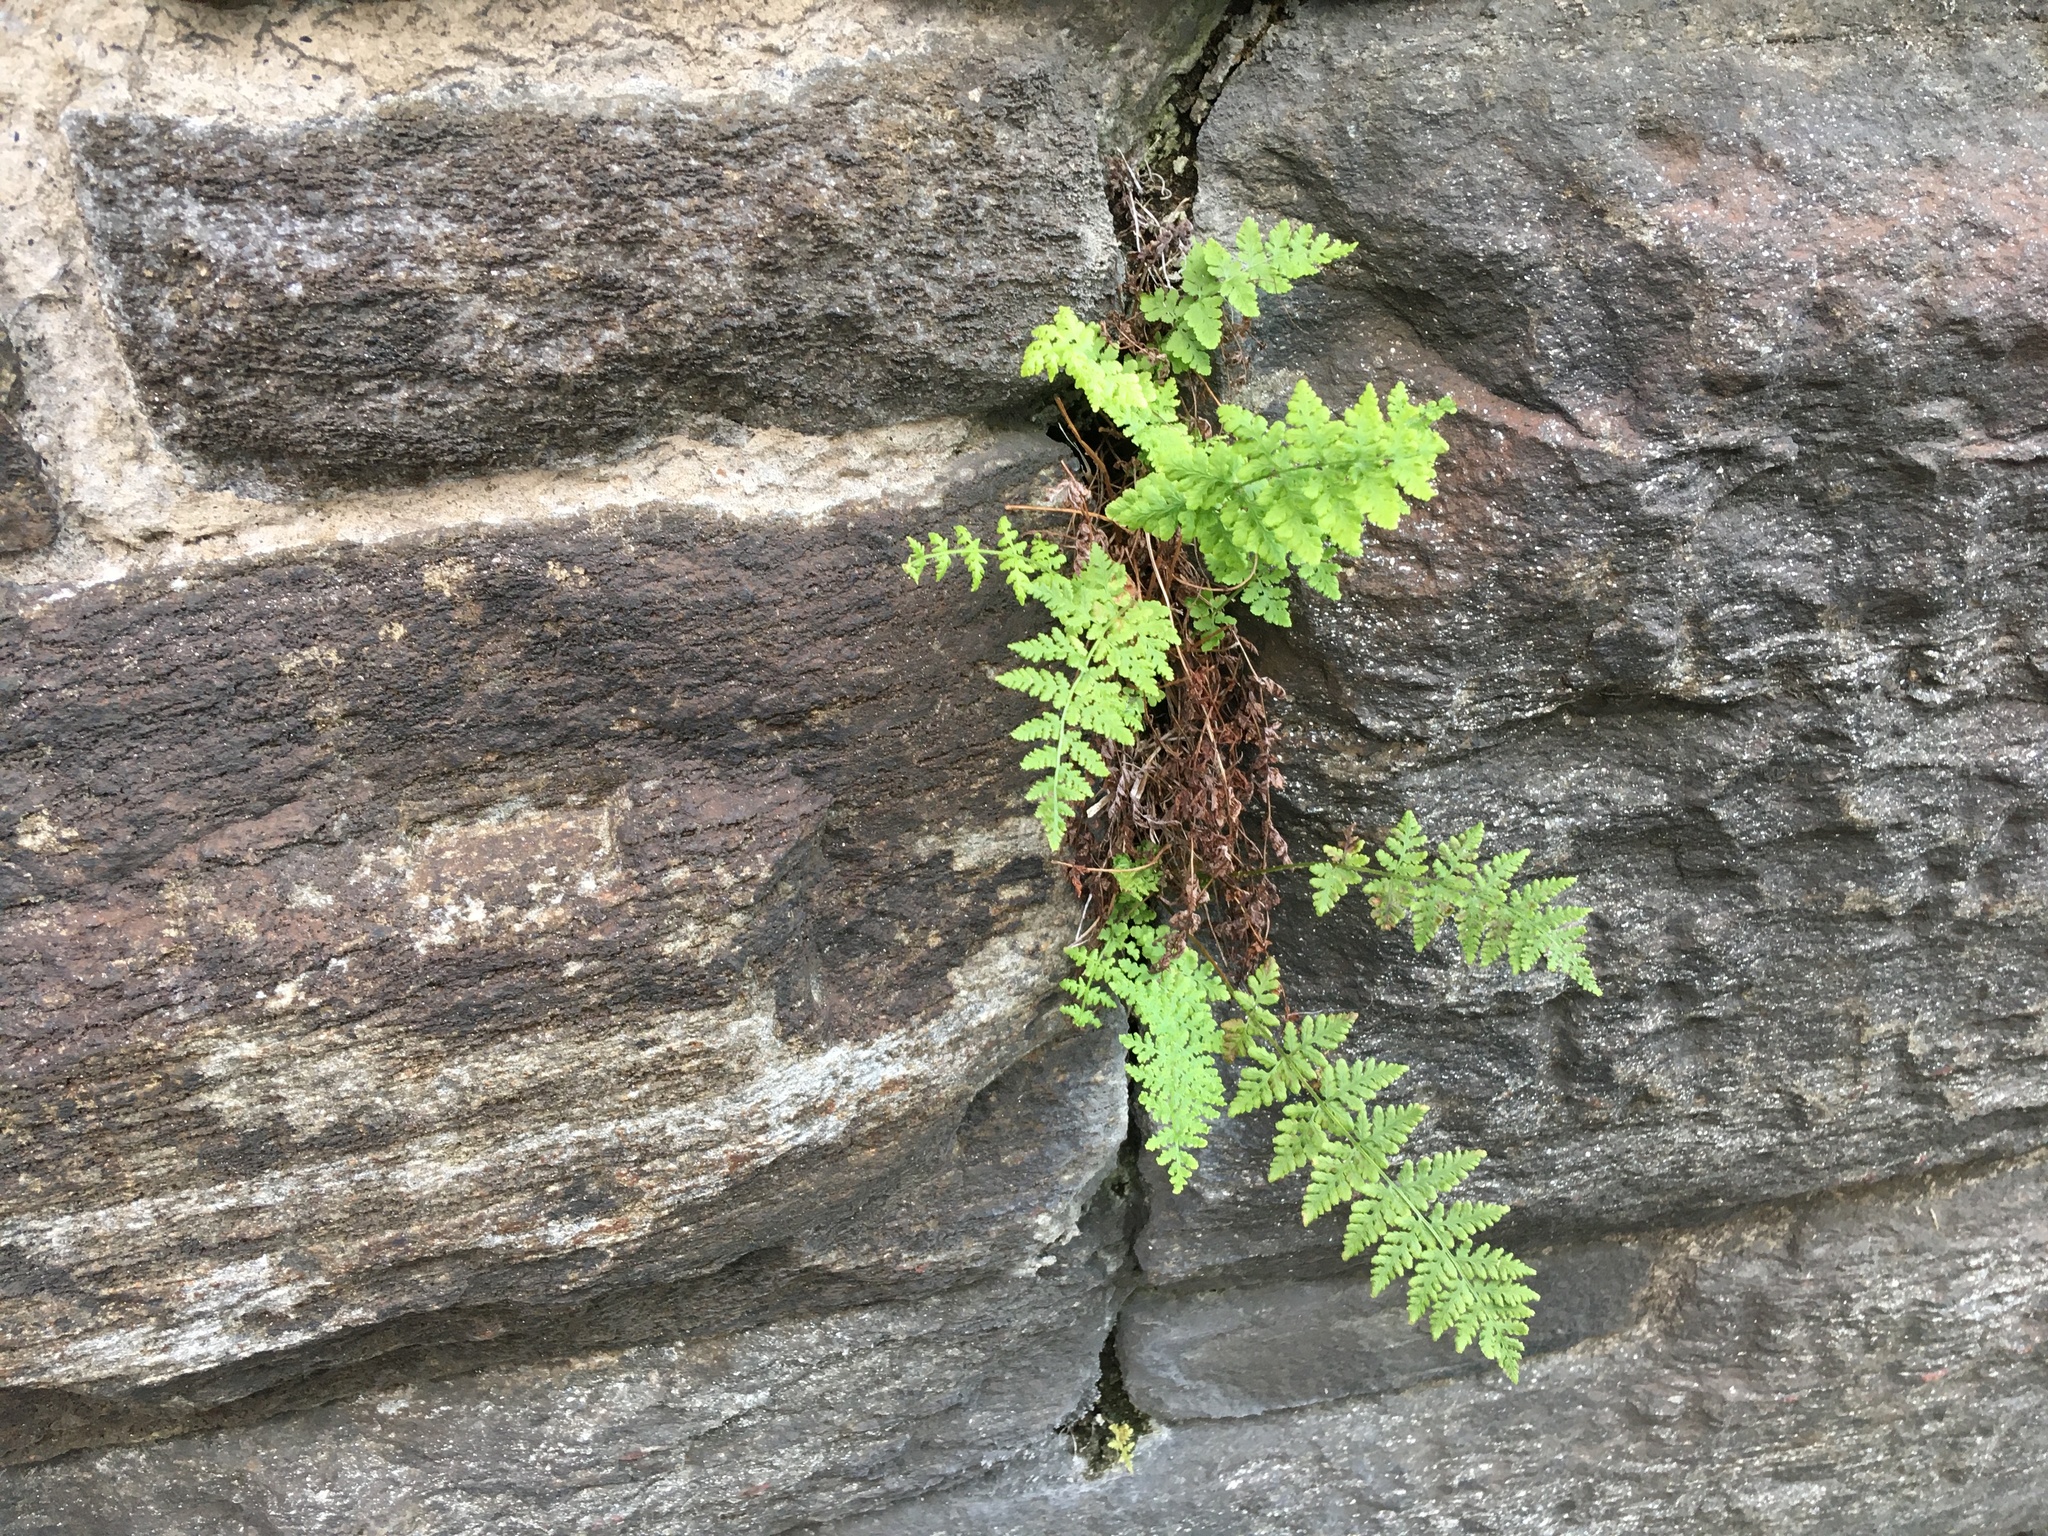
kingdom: Plantae
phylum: Tracheophyta
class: Polypodiopsida
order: Polypodiales
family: Woodsiaceae
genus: Physematium
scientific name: Physematium obtusum
